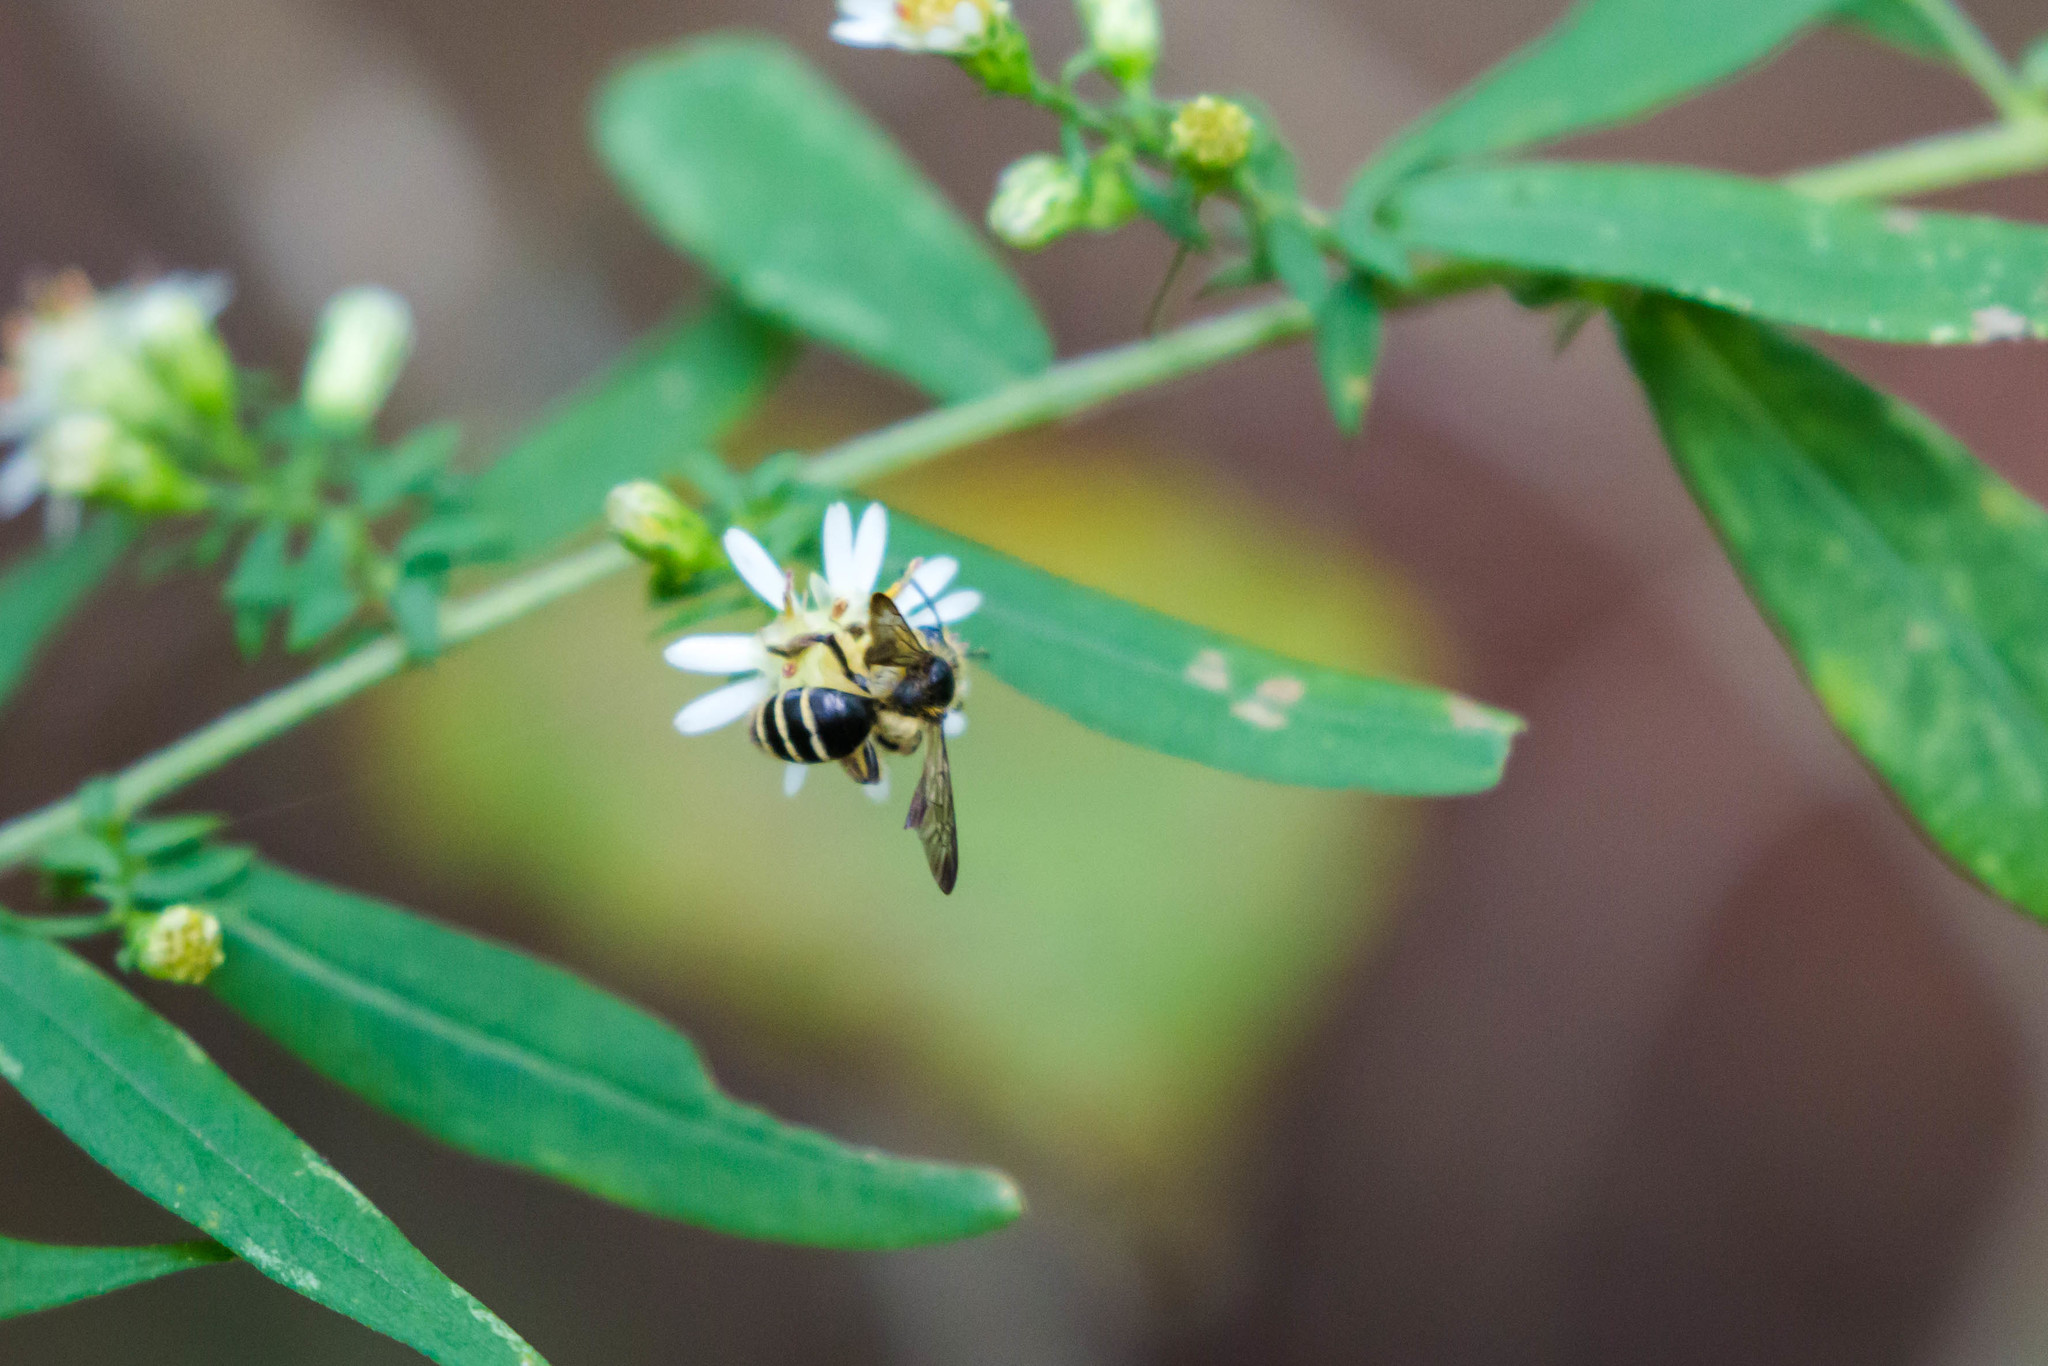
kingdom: Animalia
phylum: Arthropoda
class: Insecta
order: Hymenoptera
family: Andrenidae
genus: Andrena
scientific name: Andrena nubecula
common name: Cloudy-winged mining bee
